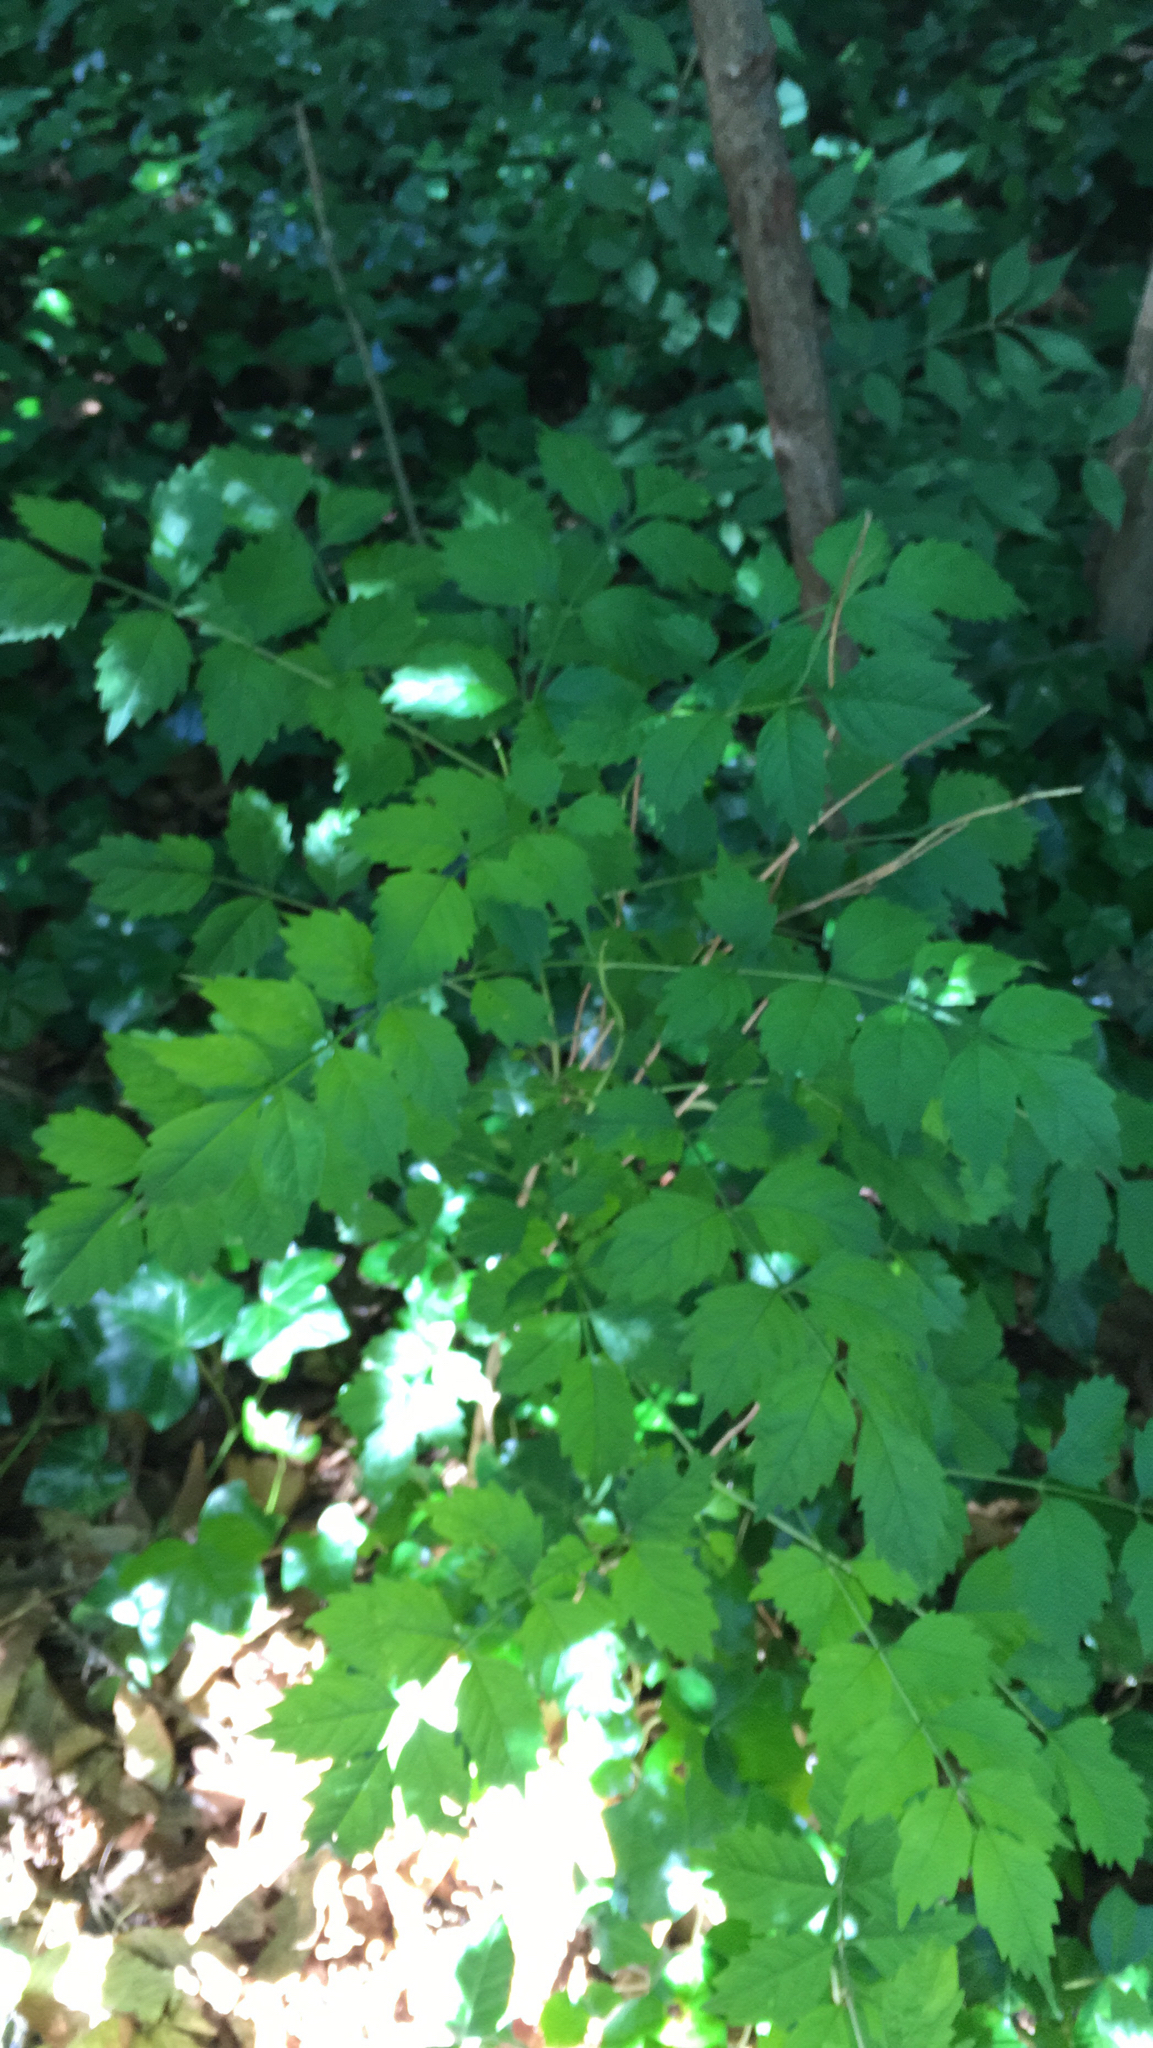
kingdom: Plantae
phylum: Tracheophyta
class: Magnoliopsida
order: Lamiales
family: Bignoniaceae
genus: Campsis
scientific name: Campsis radicans
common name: Trumpet-creeper
